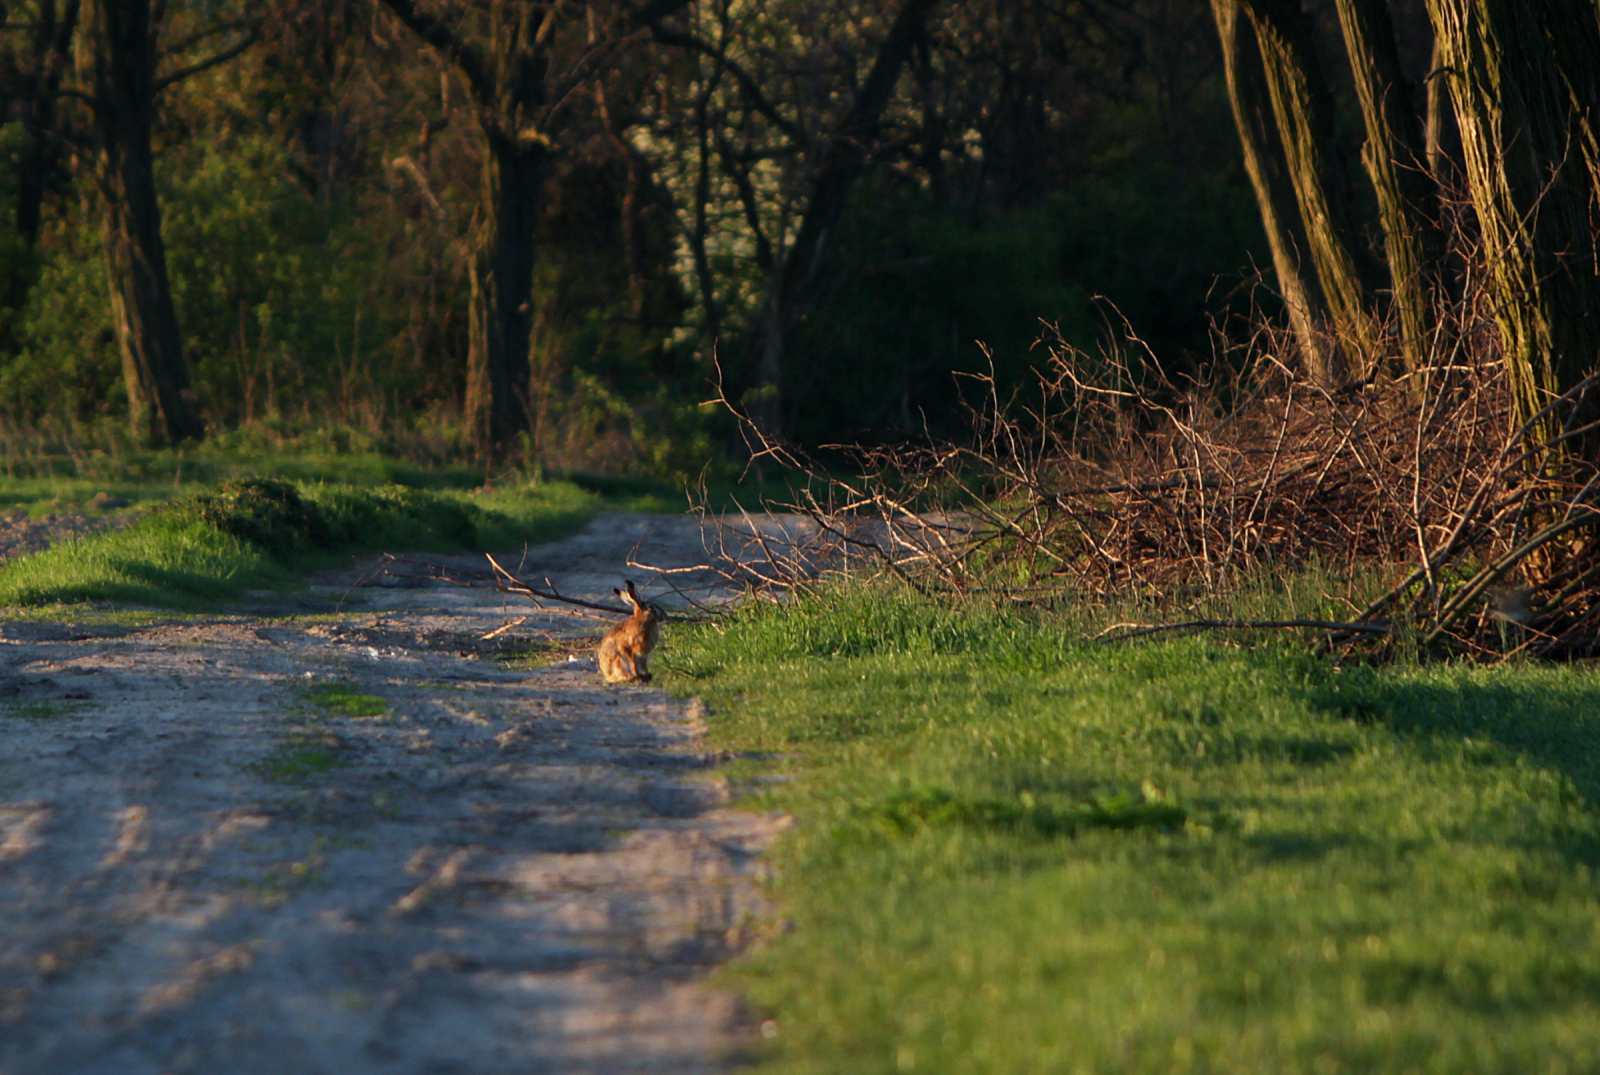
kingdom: Animalia
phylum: Chordata
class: Mammalia
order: Lagomorpha
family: Leporidae
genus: Lepus
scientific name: Lepus europaeus
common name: European hare
